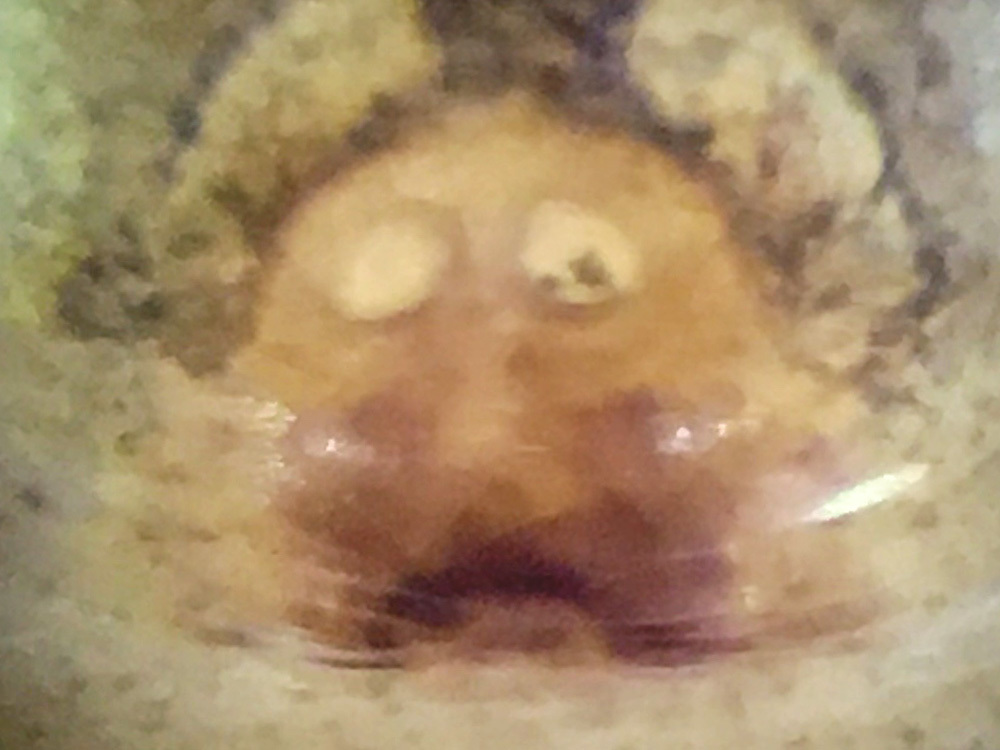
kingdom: Animalia
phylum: Arthropoda
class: Arachnida
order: Araneae
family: Salticidae
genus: Eris
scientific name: Eris flava
